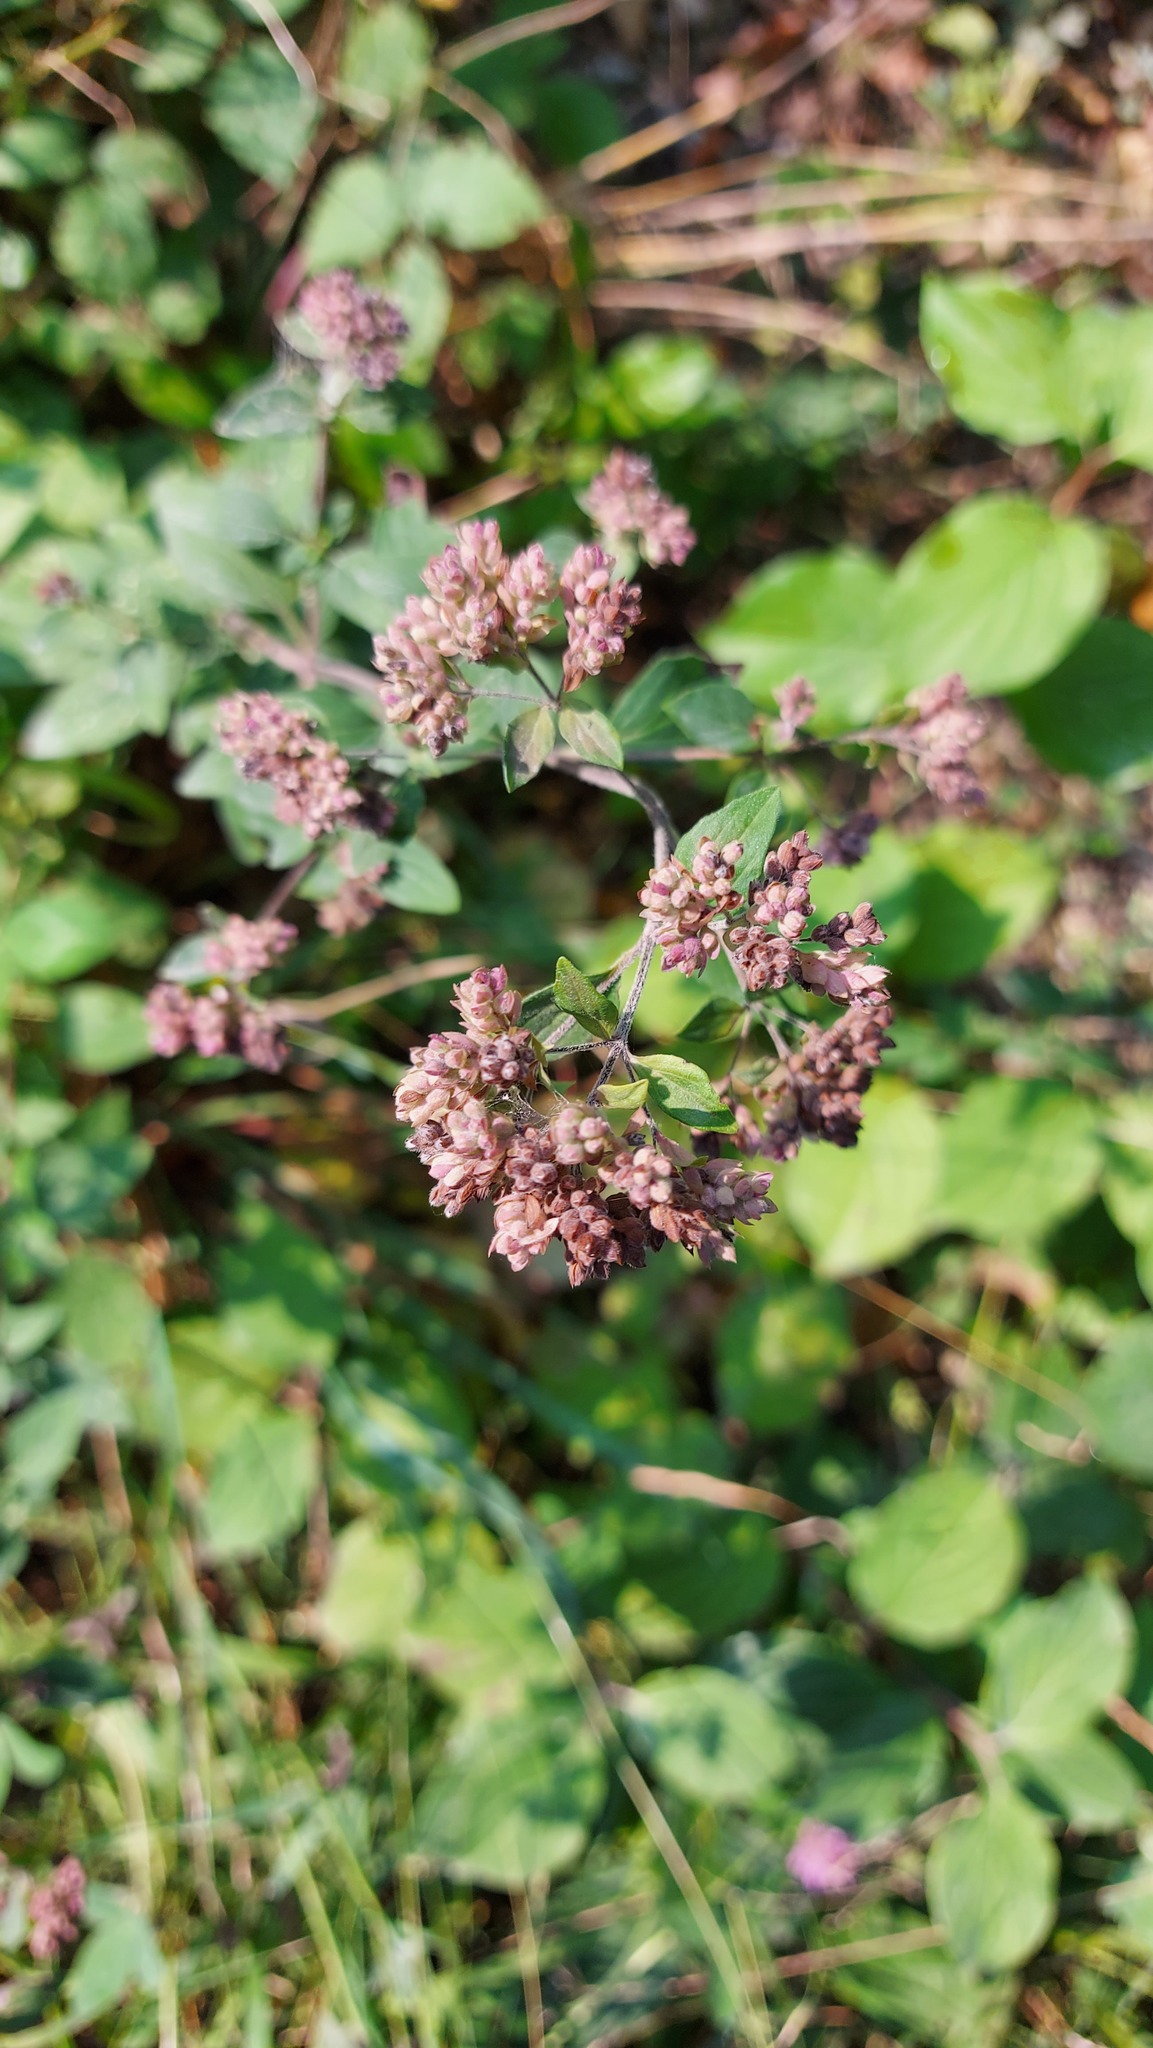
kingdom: Plantae
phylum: Tracheophyta
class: Magnoliopsida
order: Lamiales
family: Lamiaceae
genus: Origanum
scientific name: Origanum vulgare
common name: Wild marjoram
